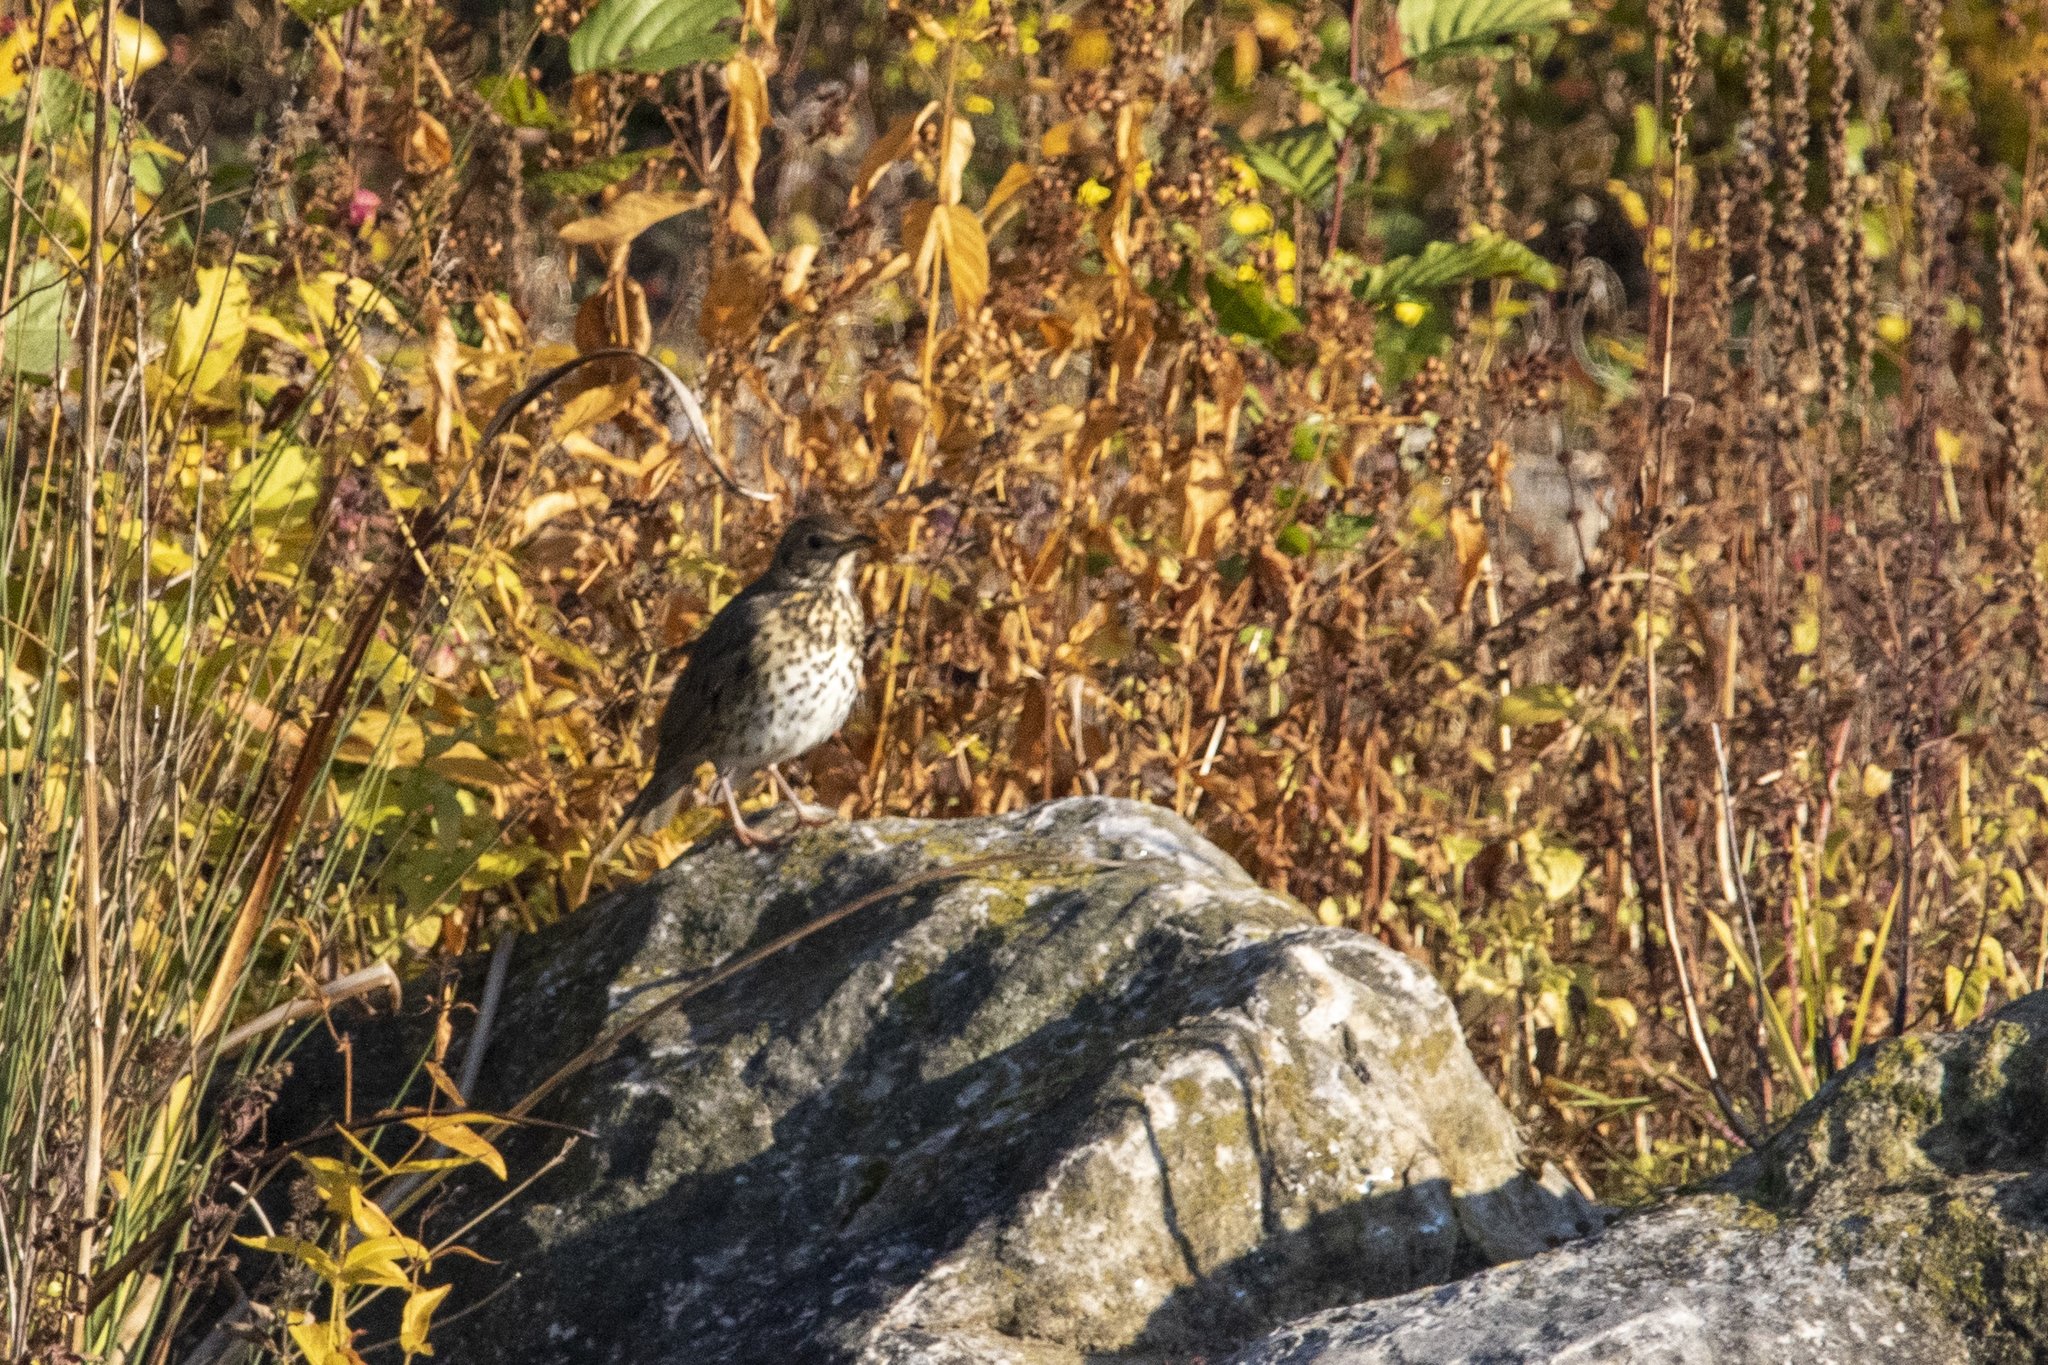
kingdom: Animalia
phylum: Chordata
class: Aves
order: Passeriformes
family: Turdidae
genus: Turdus
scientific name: Turdus philomelos
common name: Song thrush
